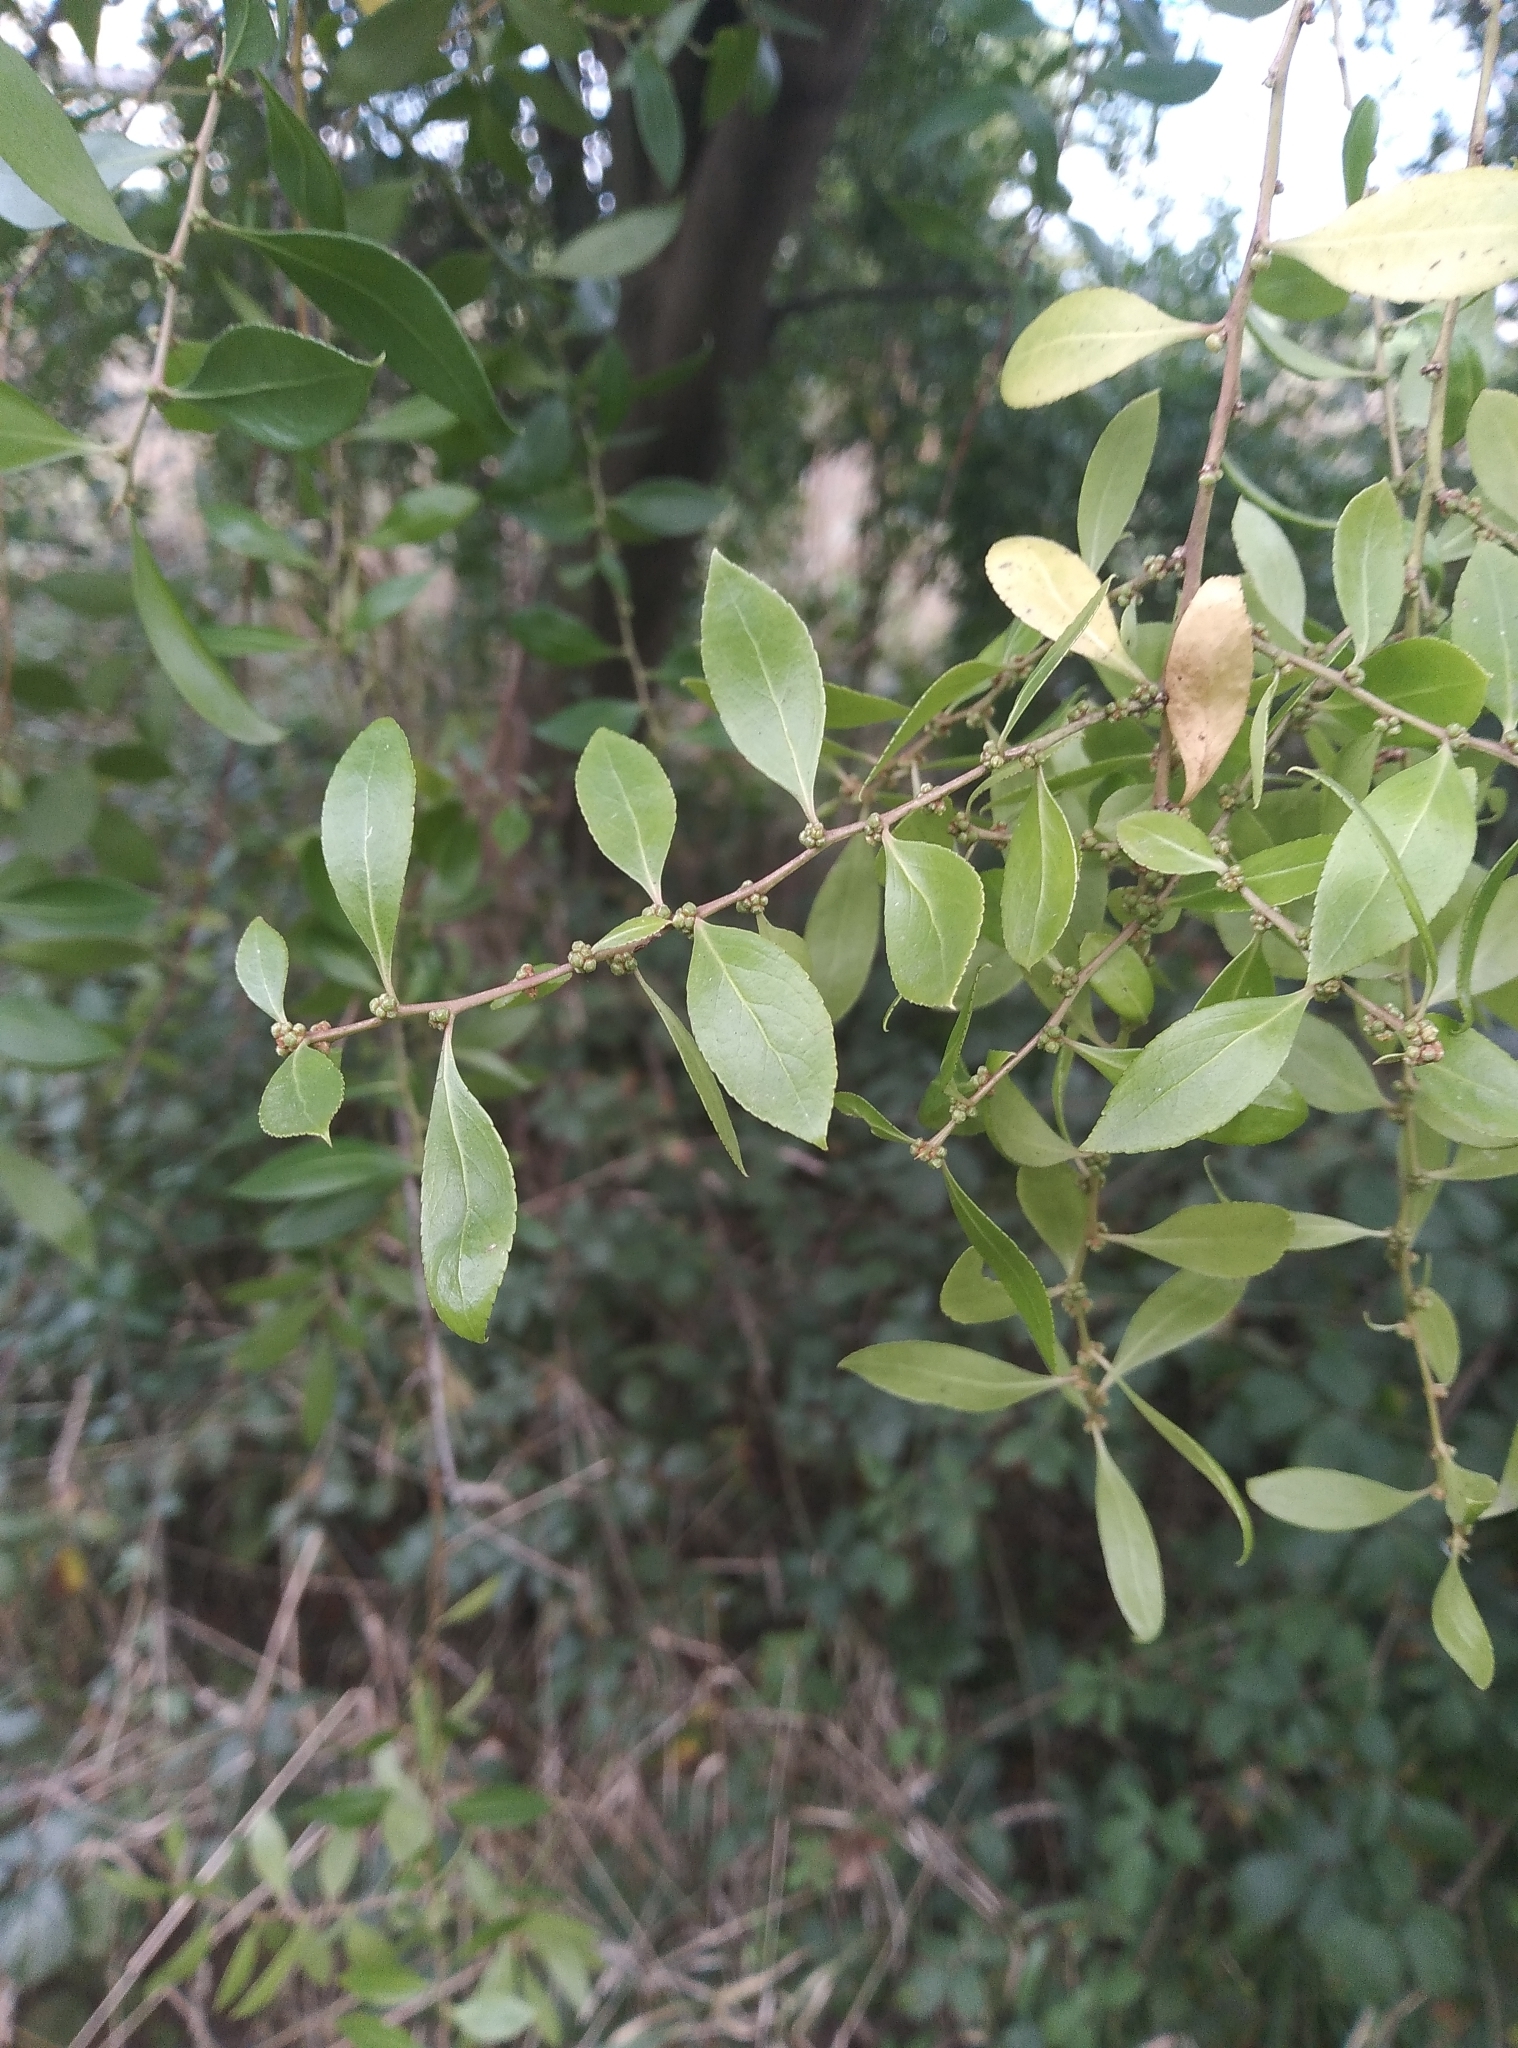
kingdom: Plantae
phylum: Tracheophyta
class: Magnoliopsida
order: Celastrales
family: Celastraceae
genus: Maytenus
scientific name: Maytenus boaria
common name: Mayten
